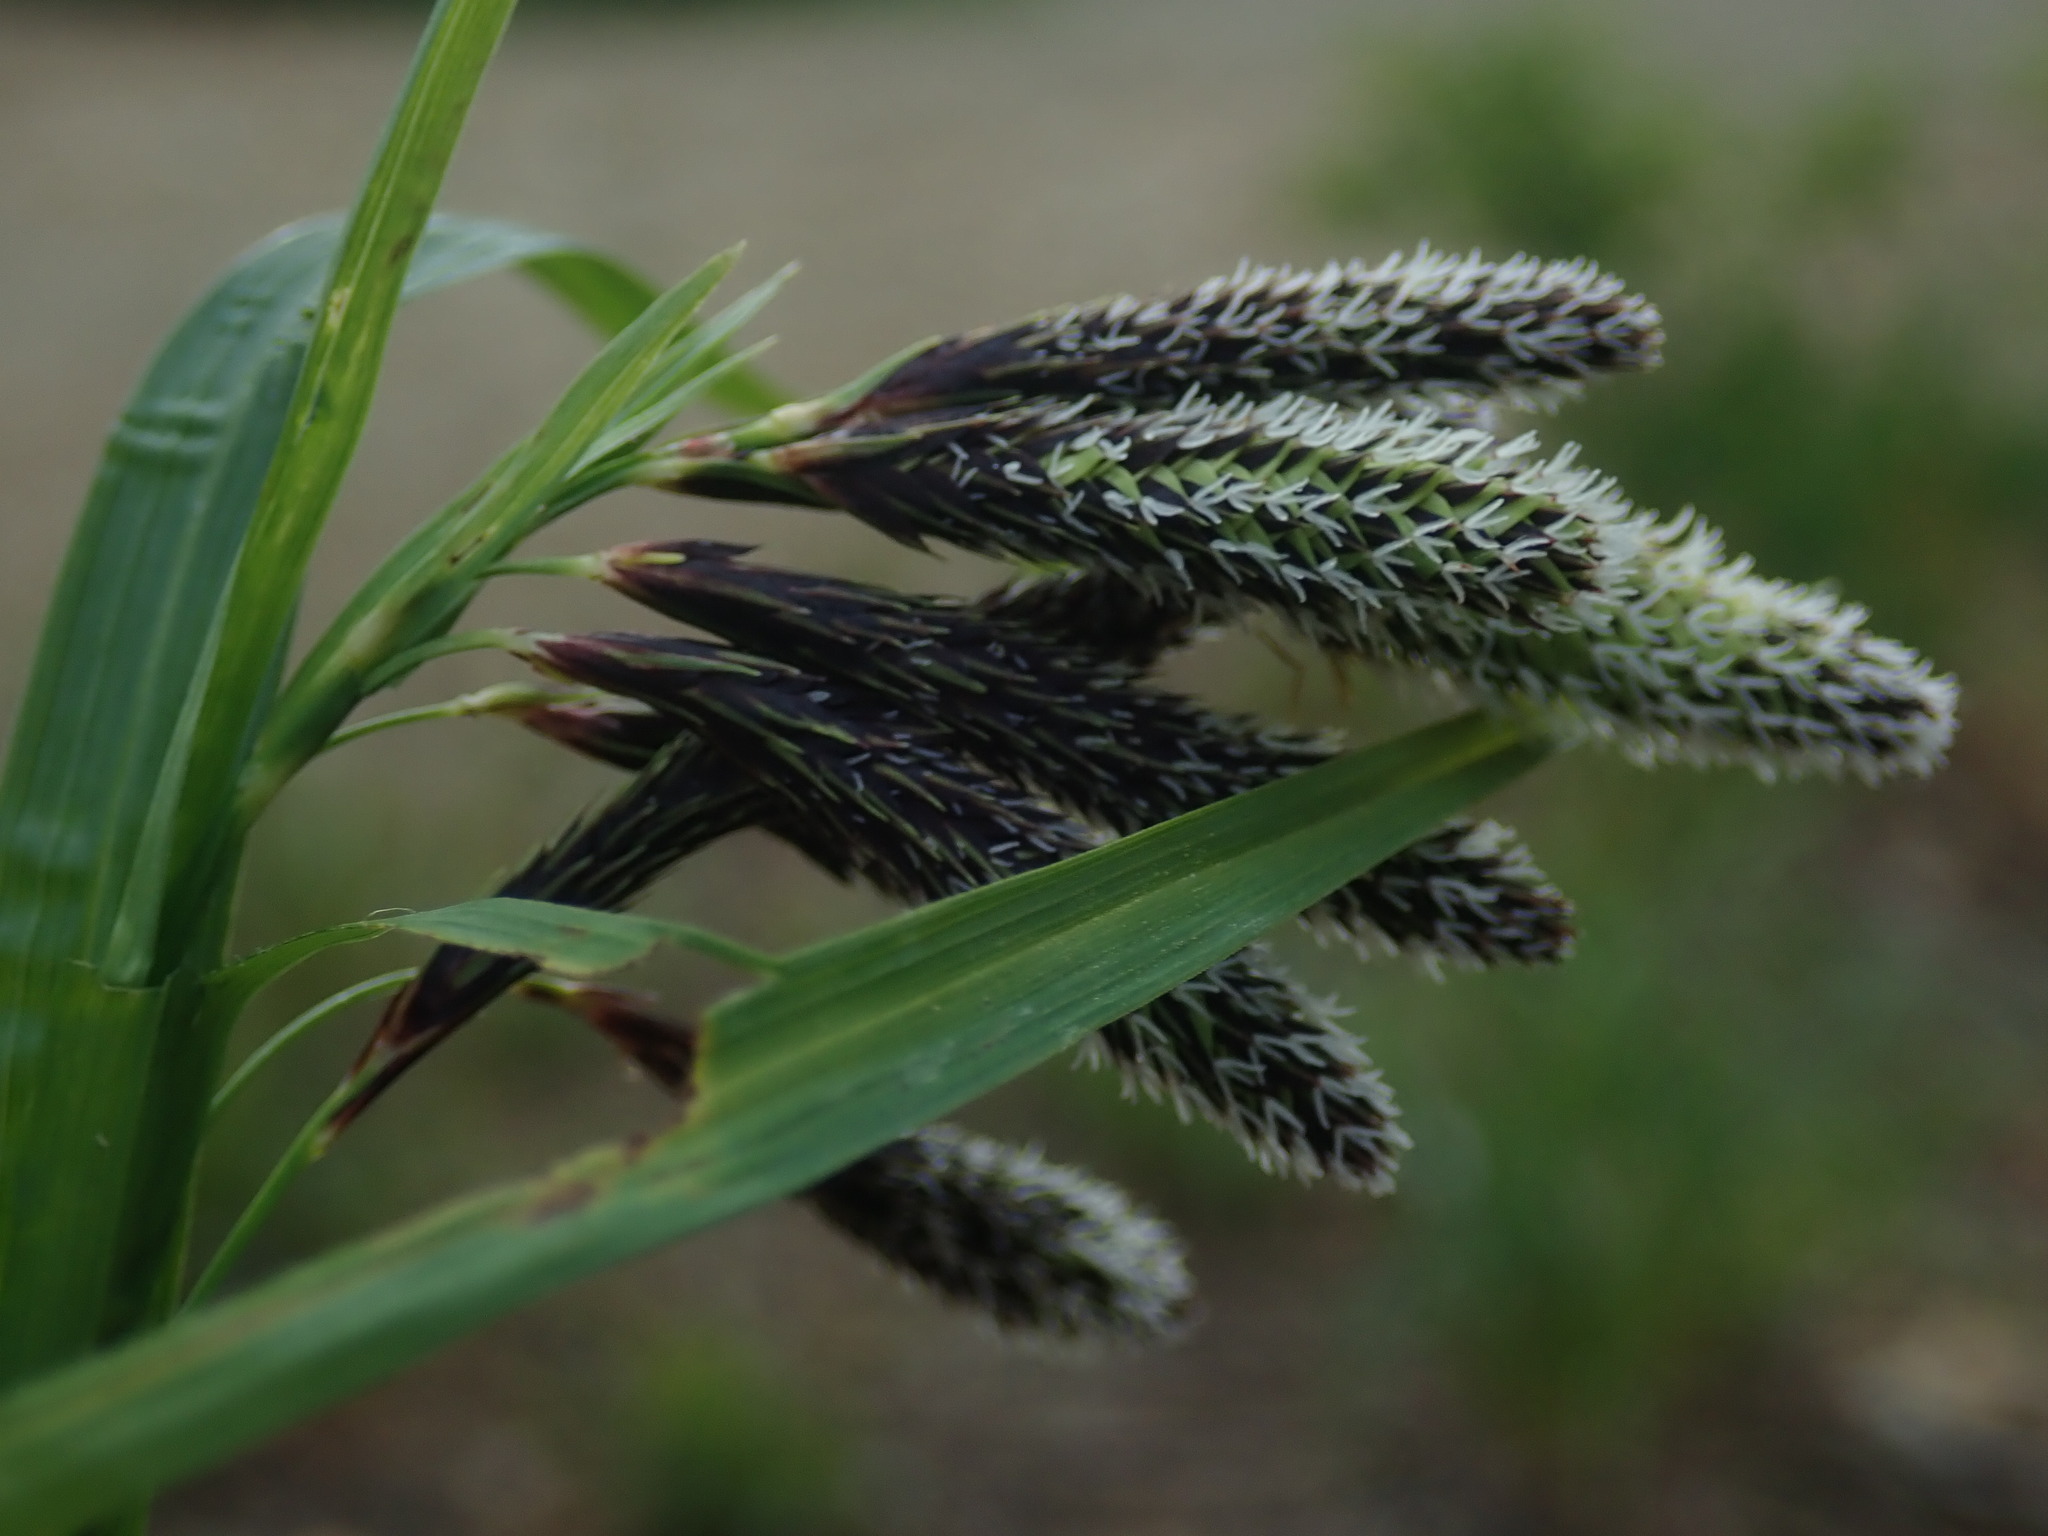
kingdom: Plantae
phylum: Tracheophyta
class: Liliopsida
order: Poales
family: Cyperaceae
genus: Carex
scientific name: Carex mertensii
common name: Mertens' sedge
